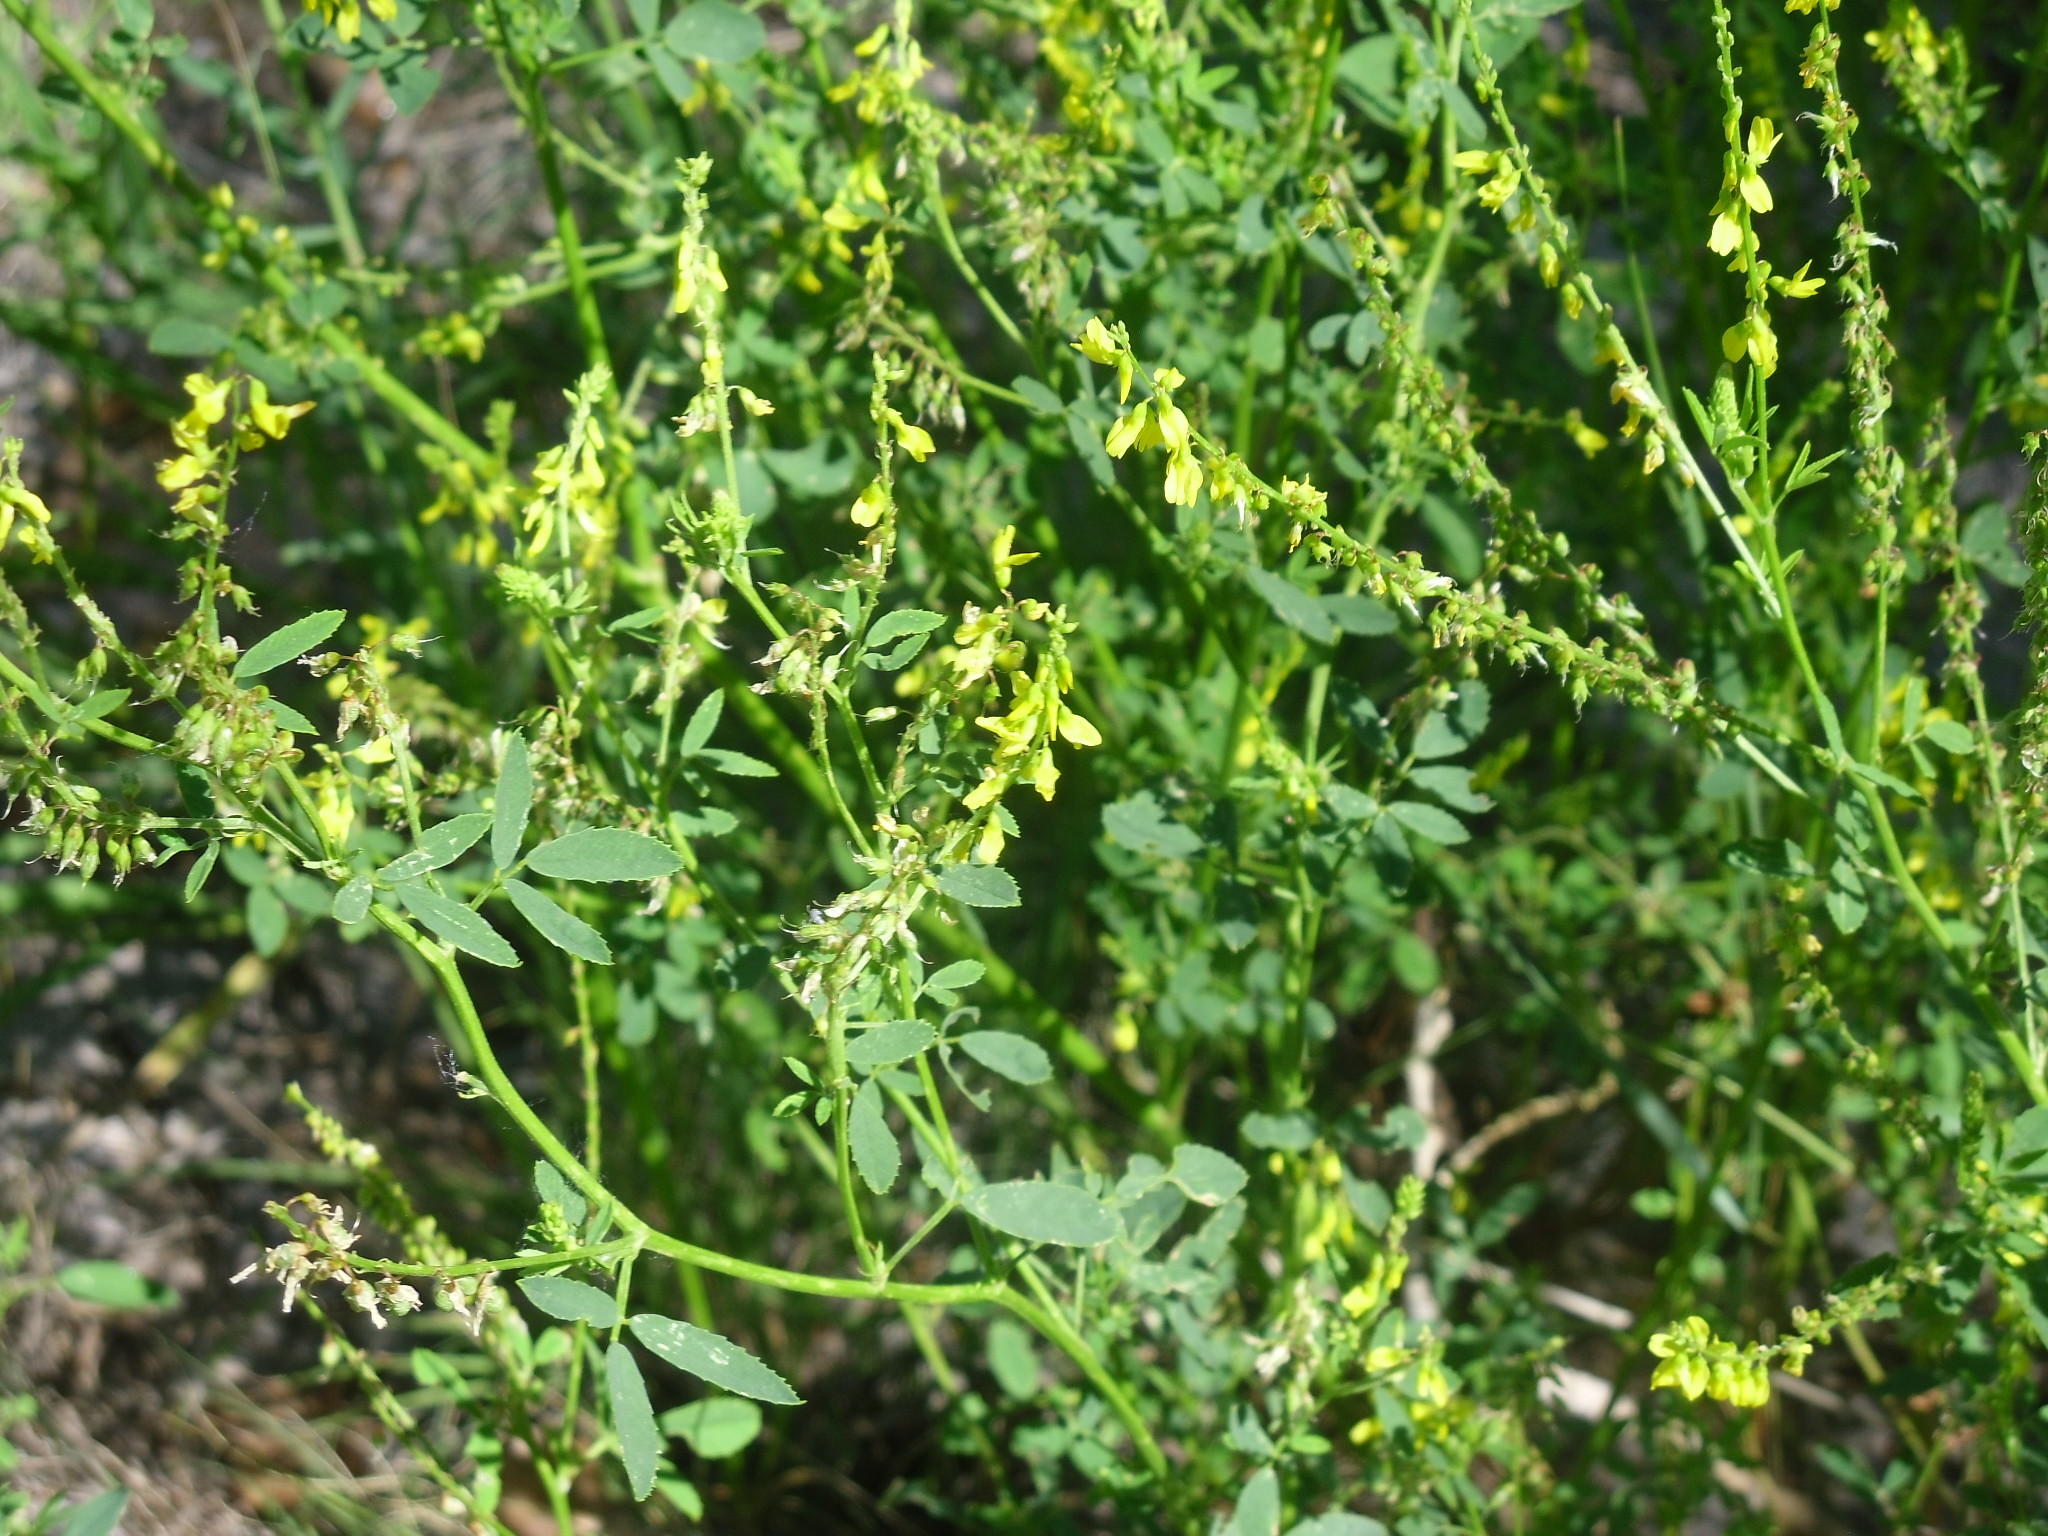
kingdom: Plantae
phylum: Tracheophyta
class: Magnoliopsida
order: Fabales
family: Fabaceae
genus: Melilotus
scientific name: Melilotus officinalis
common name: Sweetclover
